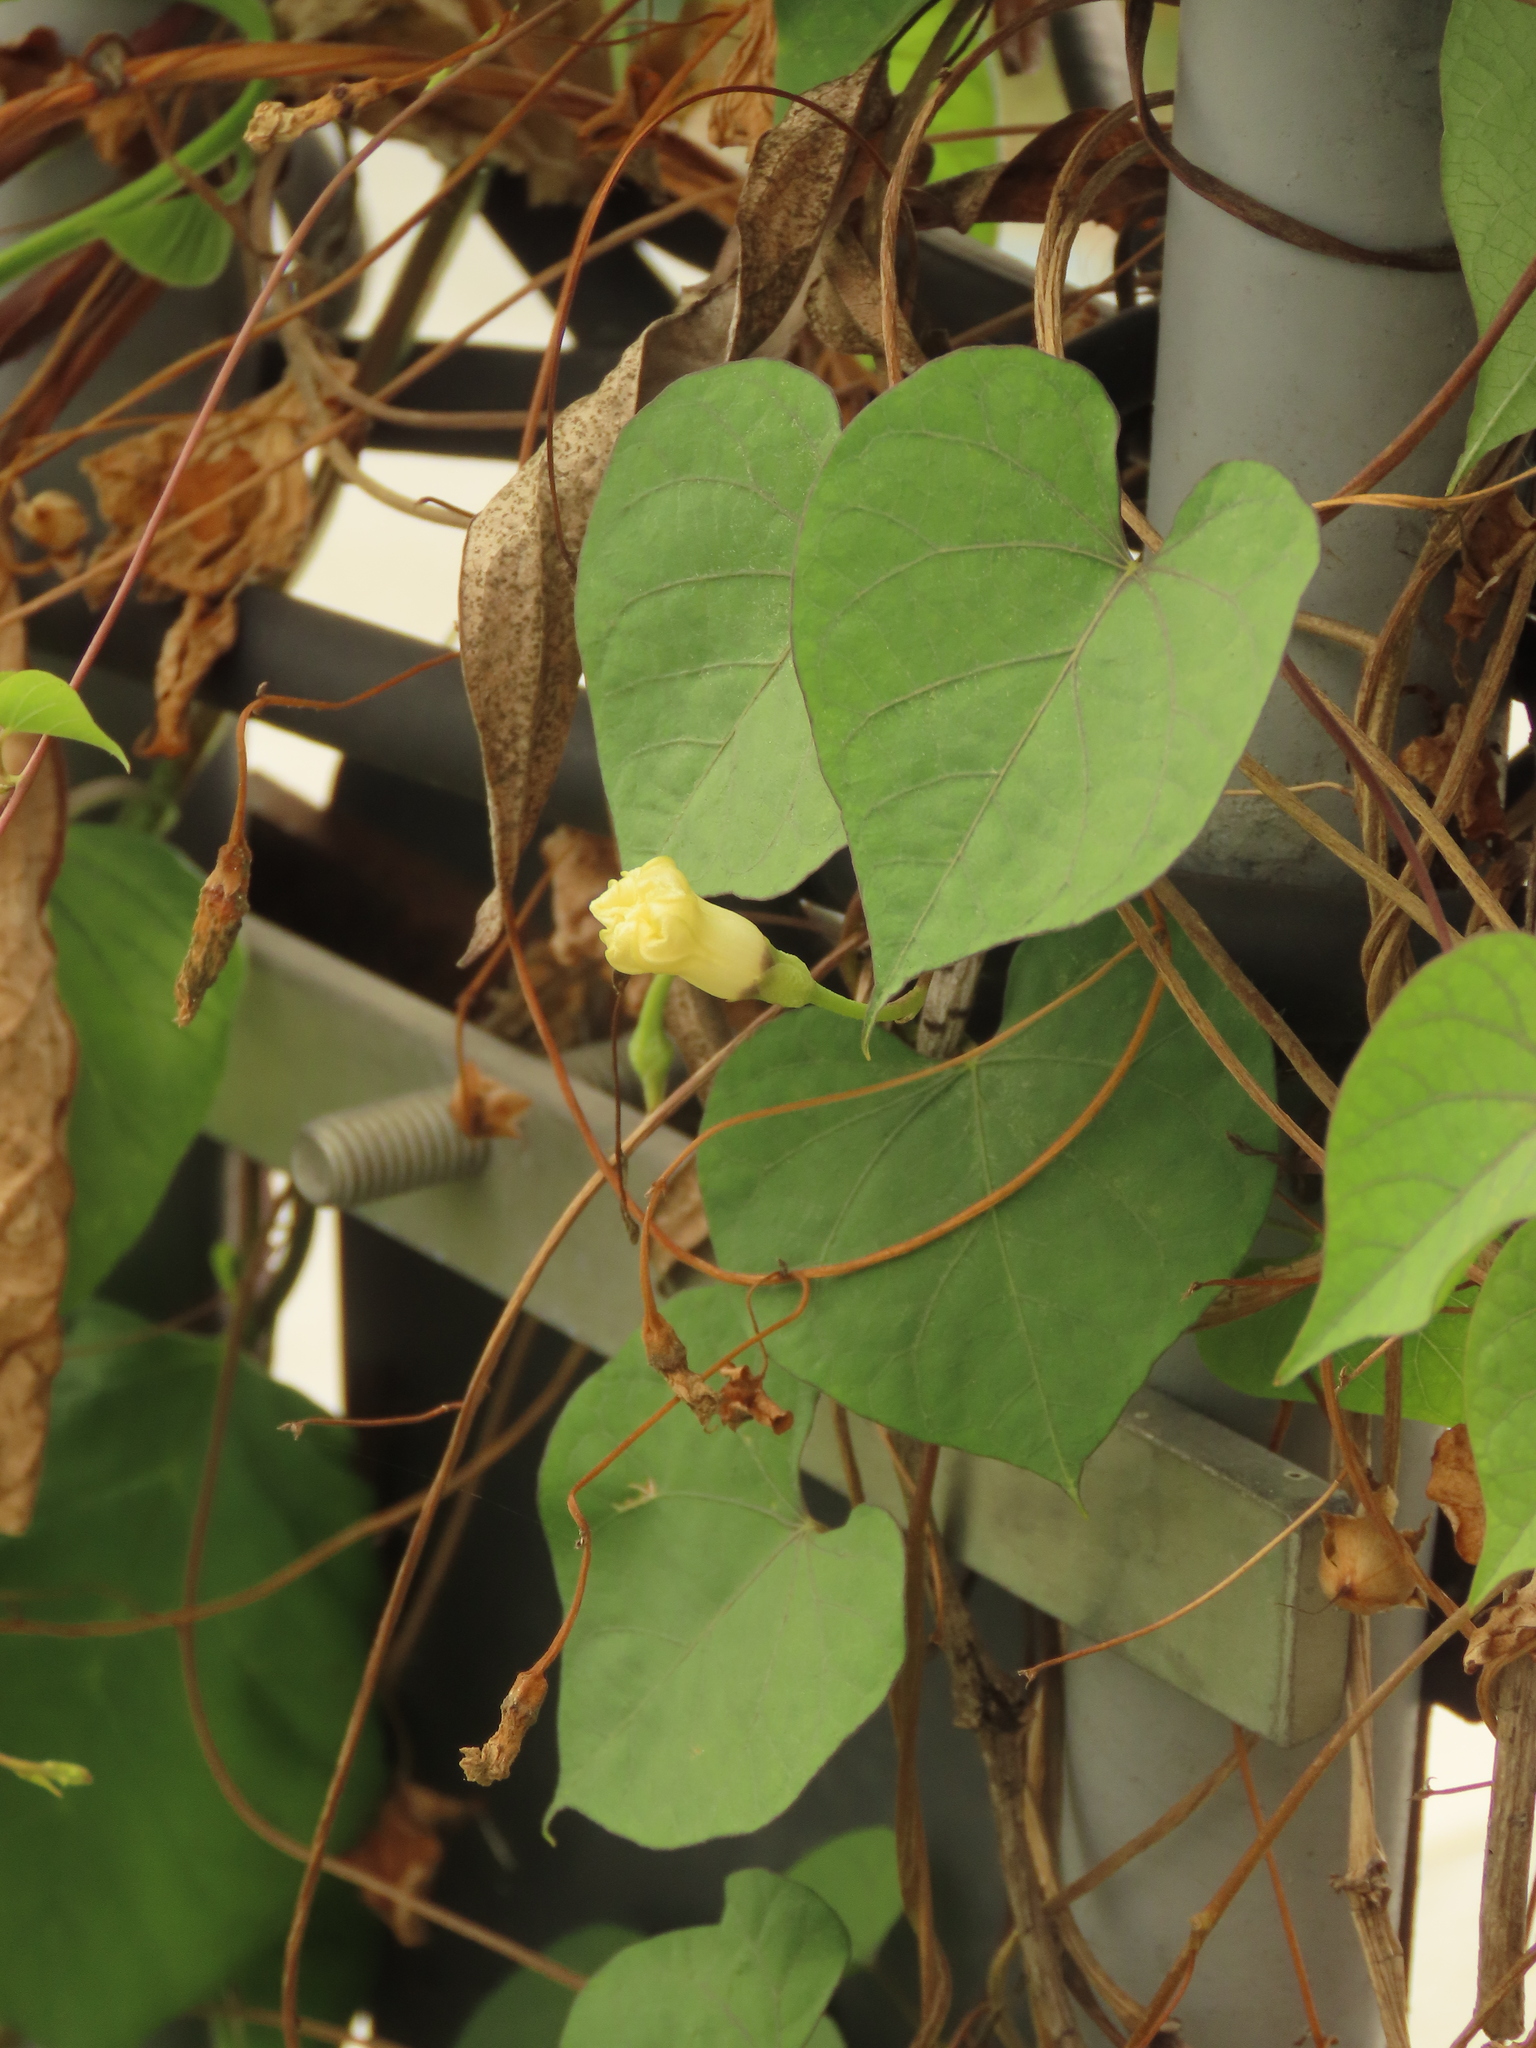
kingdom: Plantae
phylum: Tracheophyta
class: Magnoliopsida
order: Solanales
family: Convolvulaceae
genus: Ipomoea
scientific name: Ipomoea obscura
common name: Obscure morning-glory
